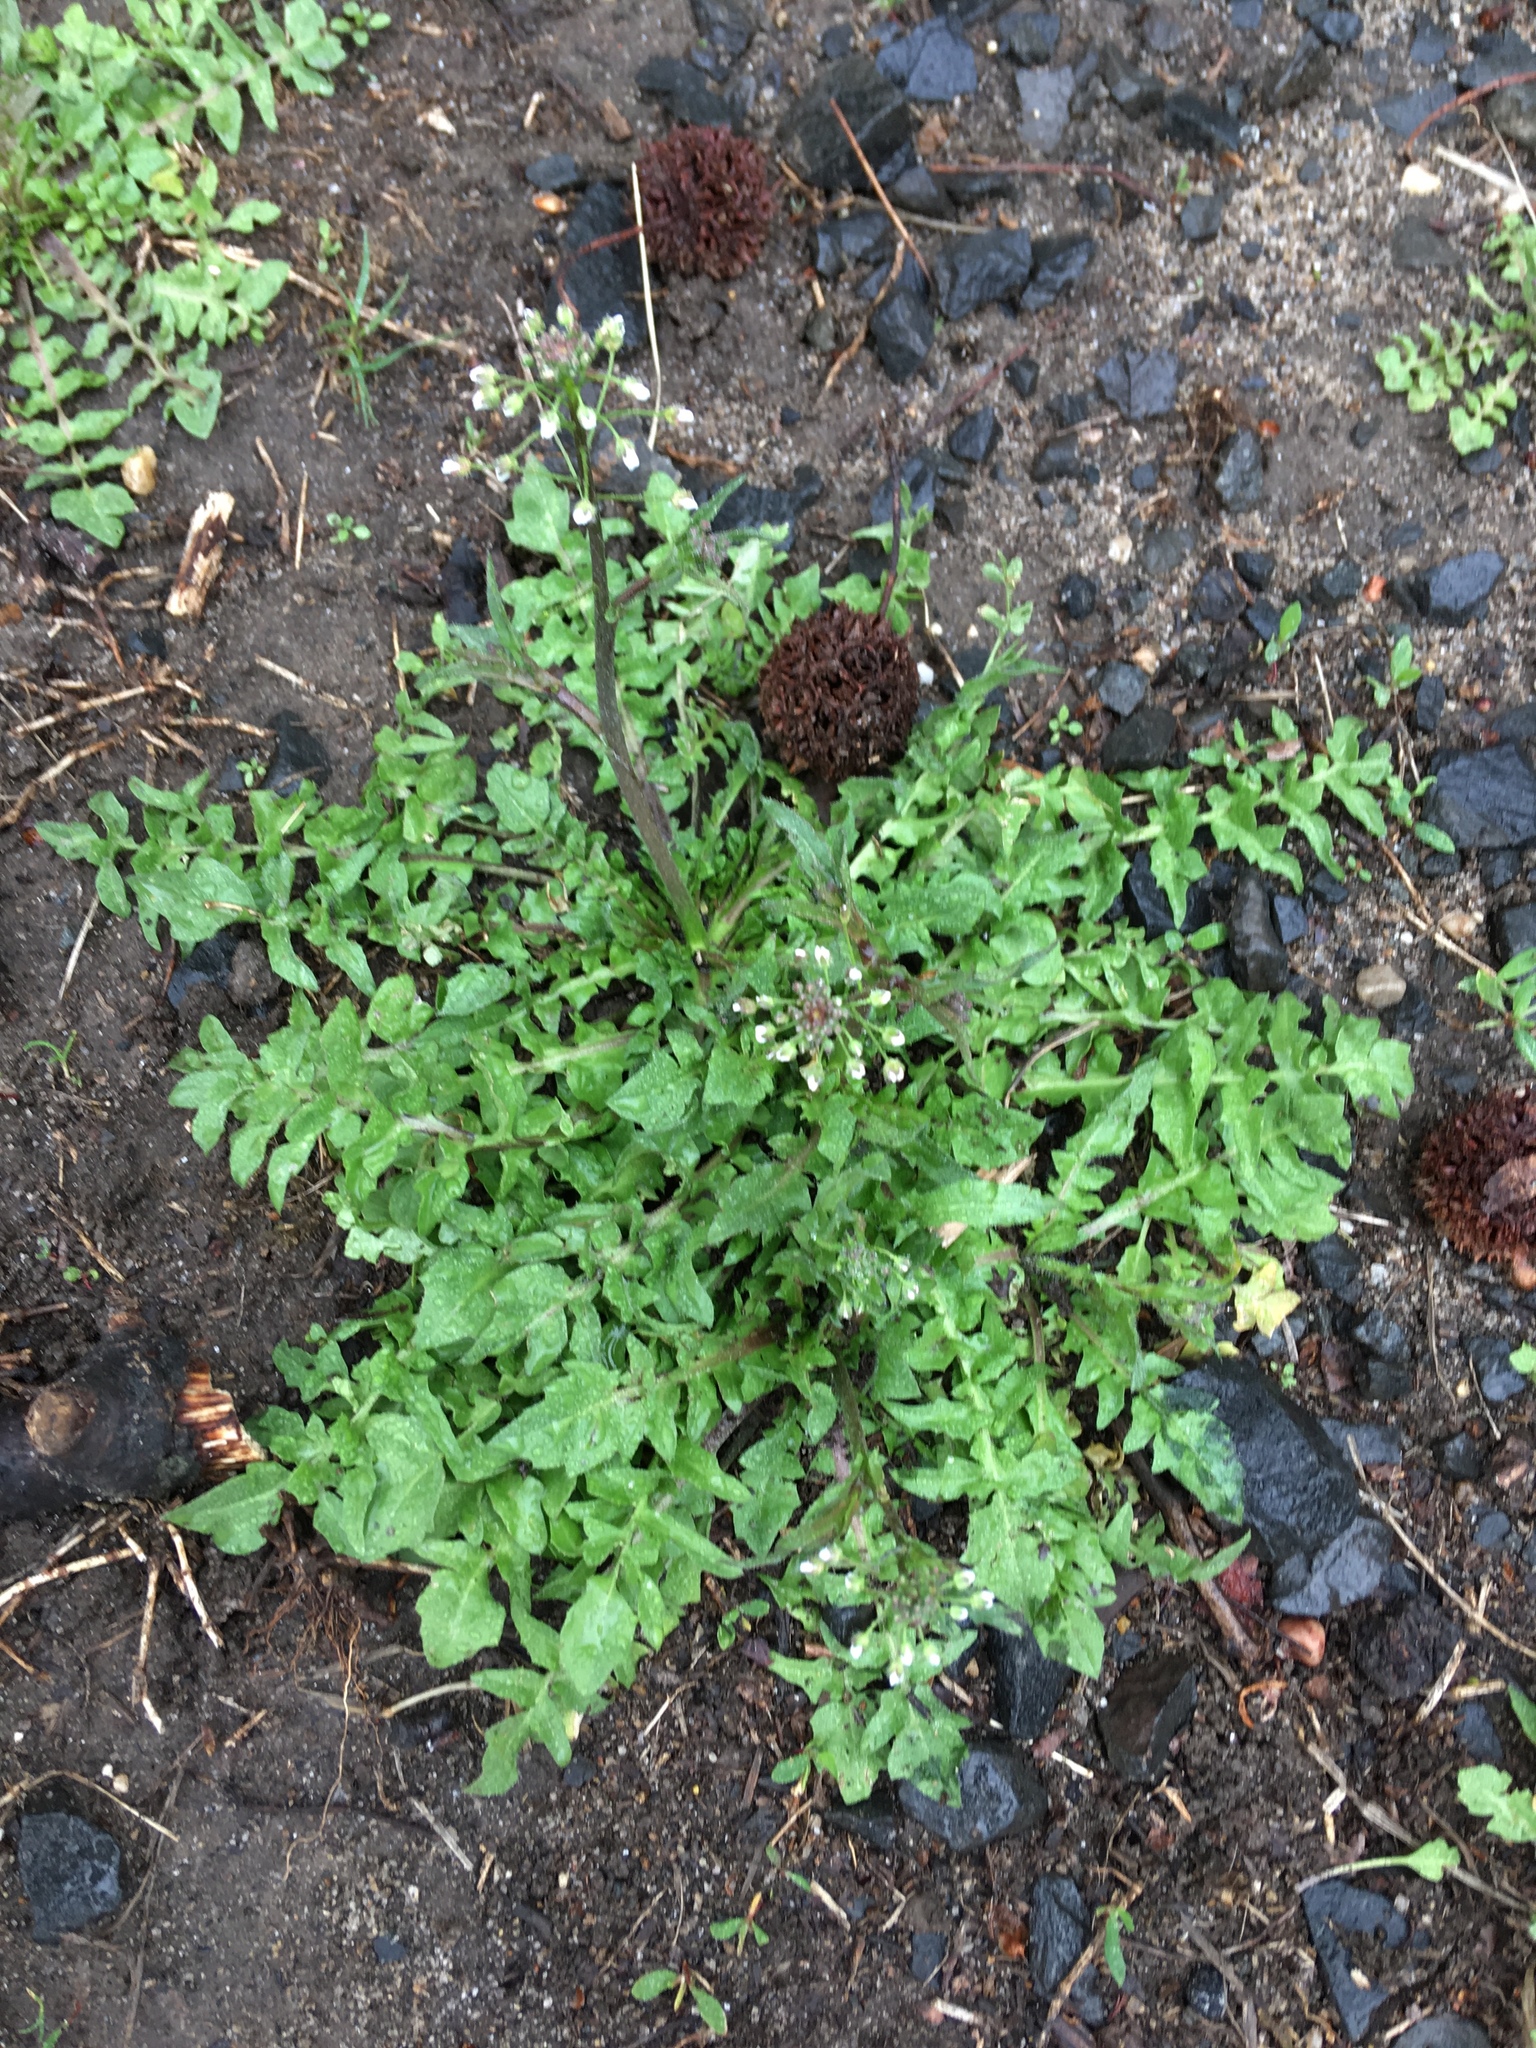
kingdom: Plantae
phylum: Tracheophyta
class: Magnoliopsida
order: Brassicales
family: Brassicaceae
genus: Capsella
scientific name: Capsella bursa-pastoris
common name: Shepherd's purse
